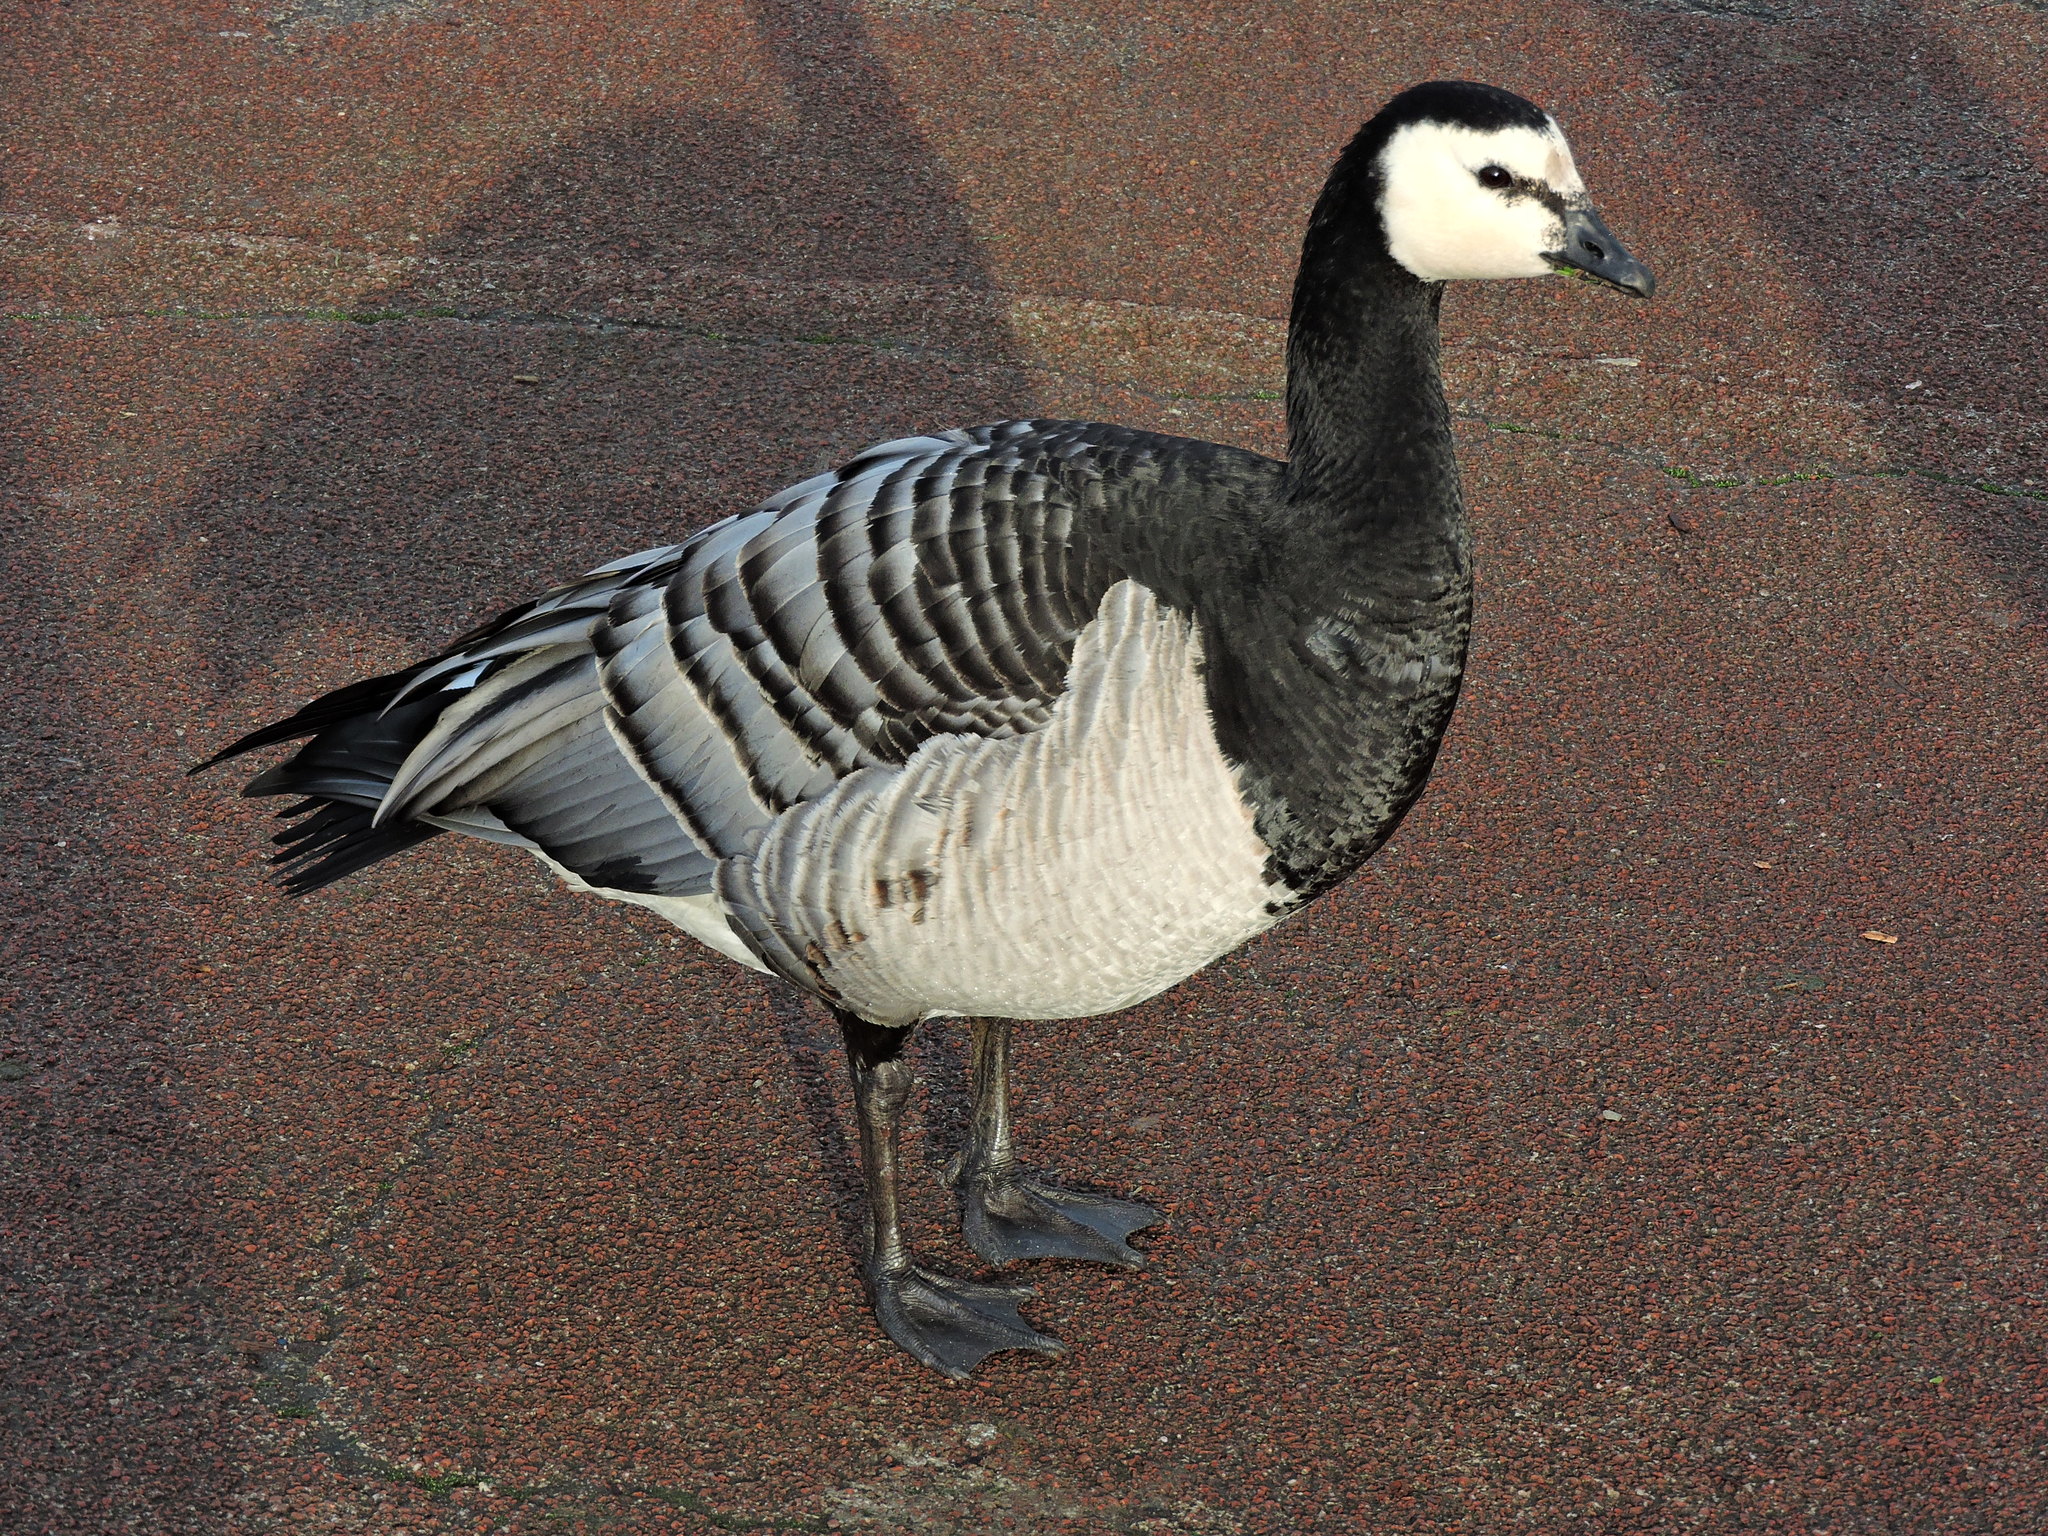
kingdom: Animalia
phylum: Chordata
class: Aves
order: Anseriformes
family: Anatidae
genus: Branta
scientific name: Branta leucopsis
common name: Barnacle goose
